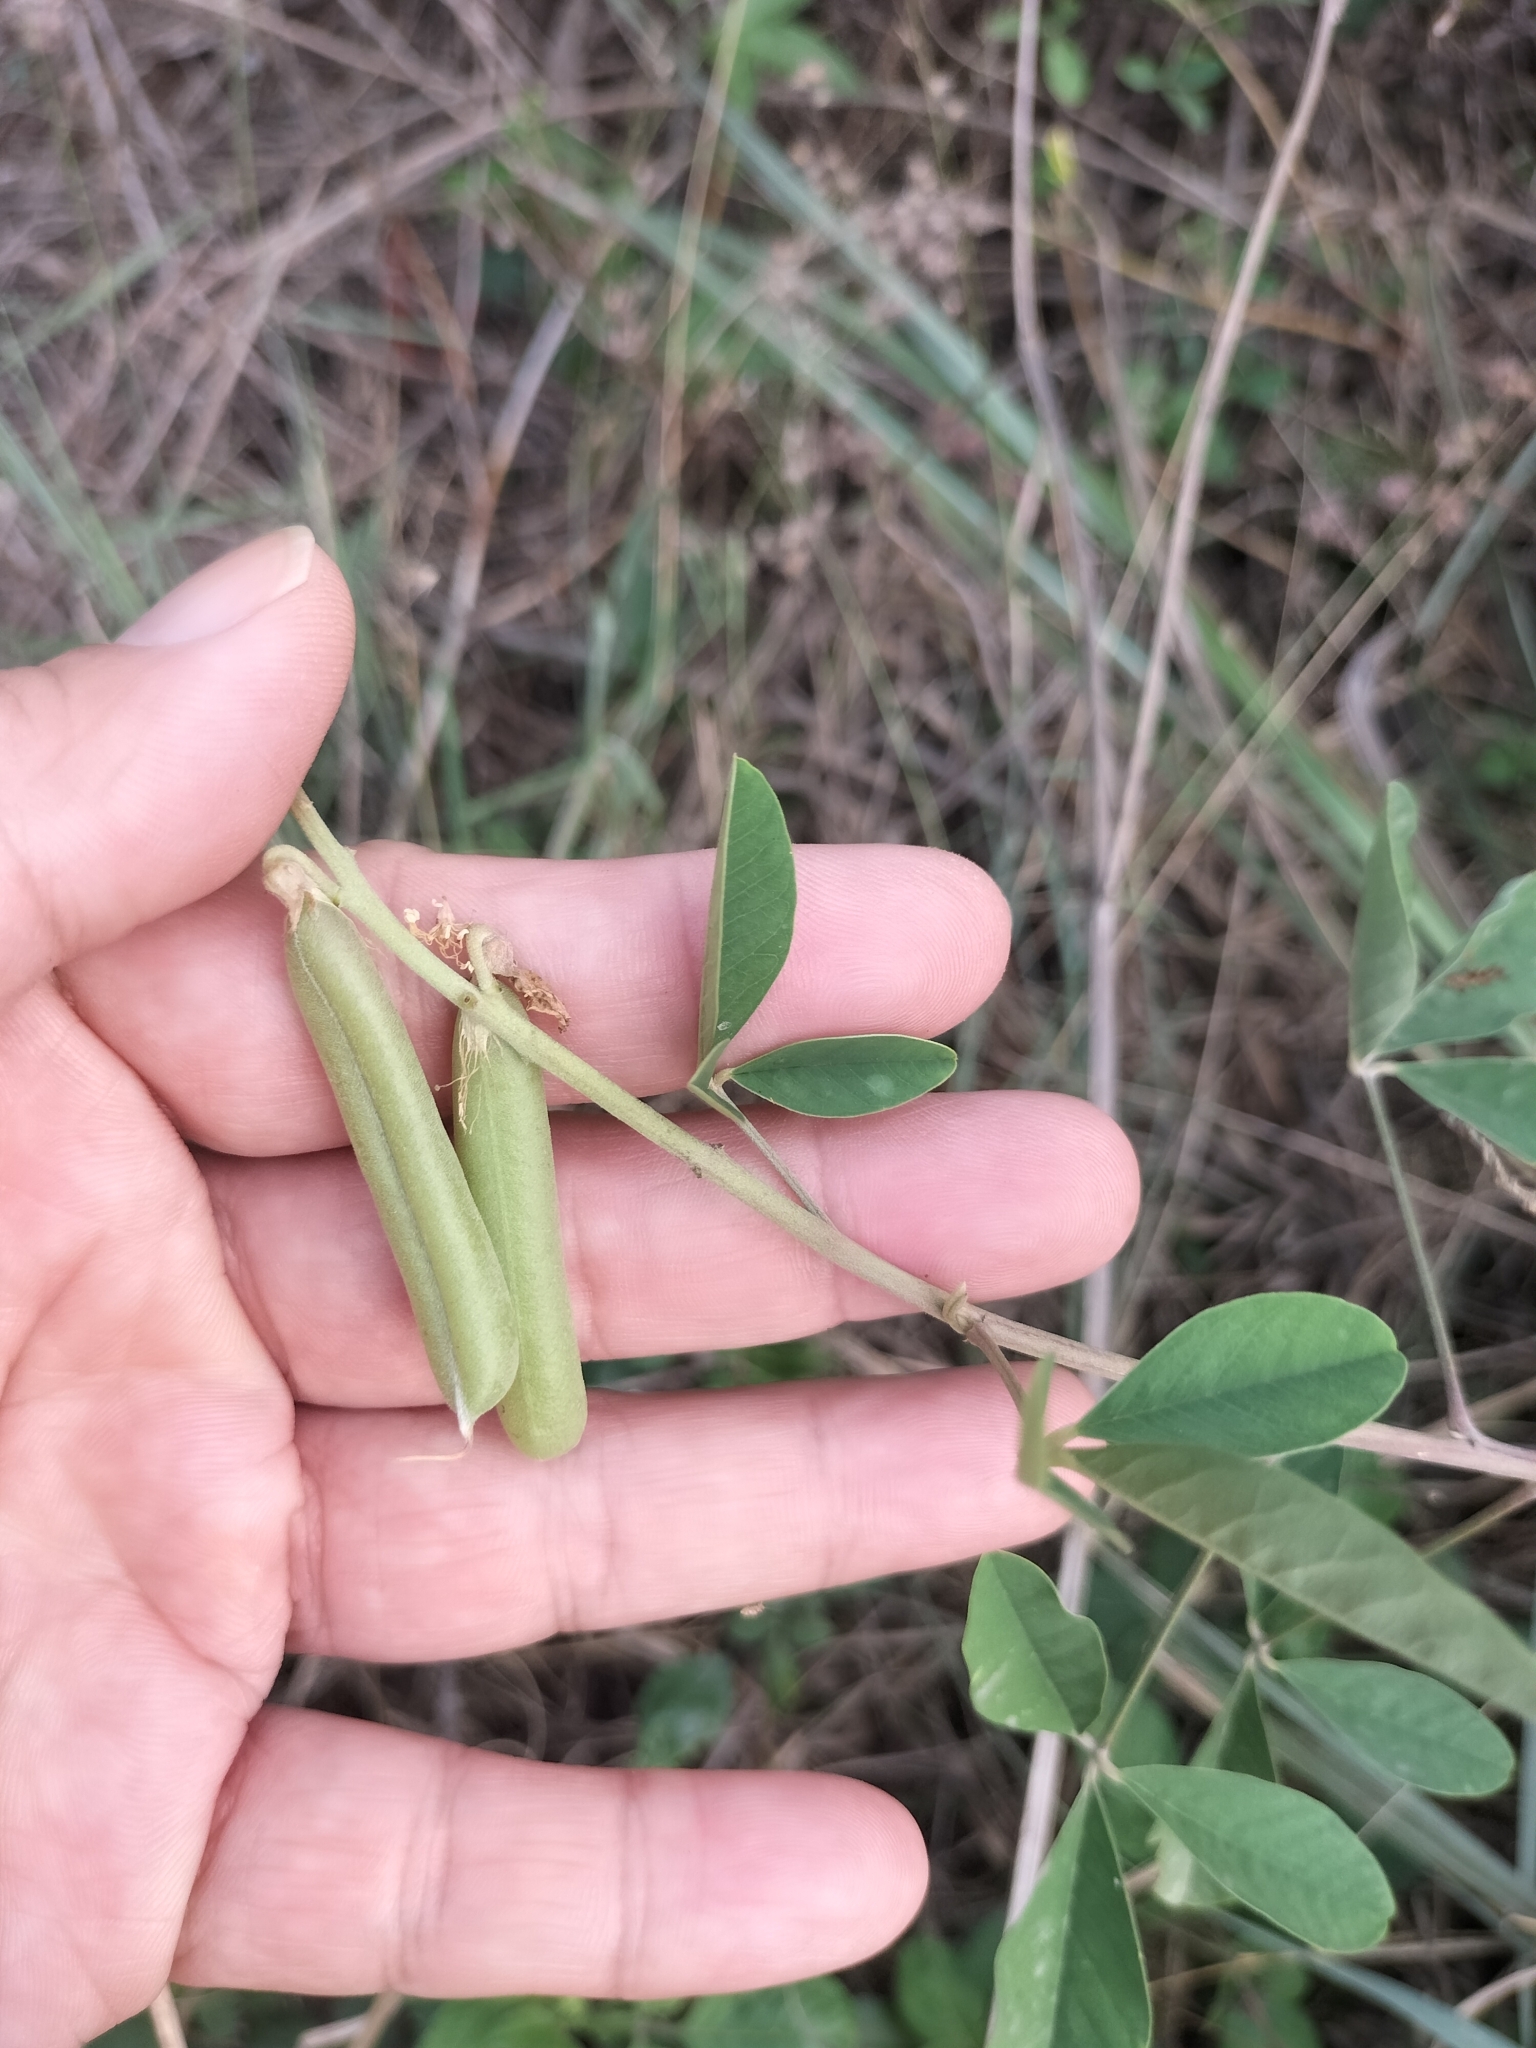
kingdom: Plantae
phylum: Tracheophyta
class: Magnoliopsida
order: Fabales
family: Fabaceae
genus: Crotalaria
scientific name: Crotalaria pallida
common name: Smooth rattlebox
